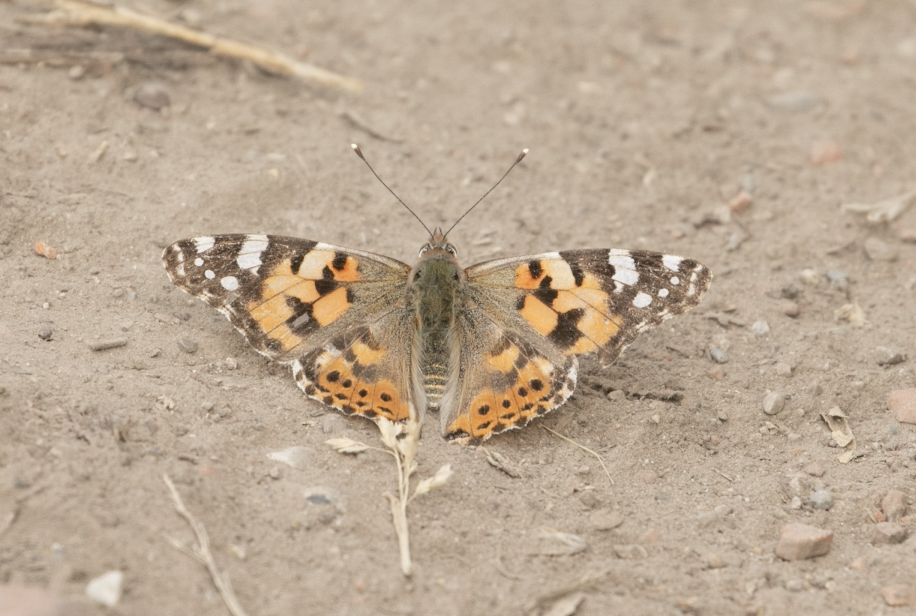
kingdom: Animalia
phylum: Arthropoda
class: Insecta
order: Lepidoptera
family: Nymphalidae
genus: Vanessa
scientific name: Vanessa cardui
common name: Painted lady
